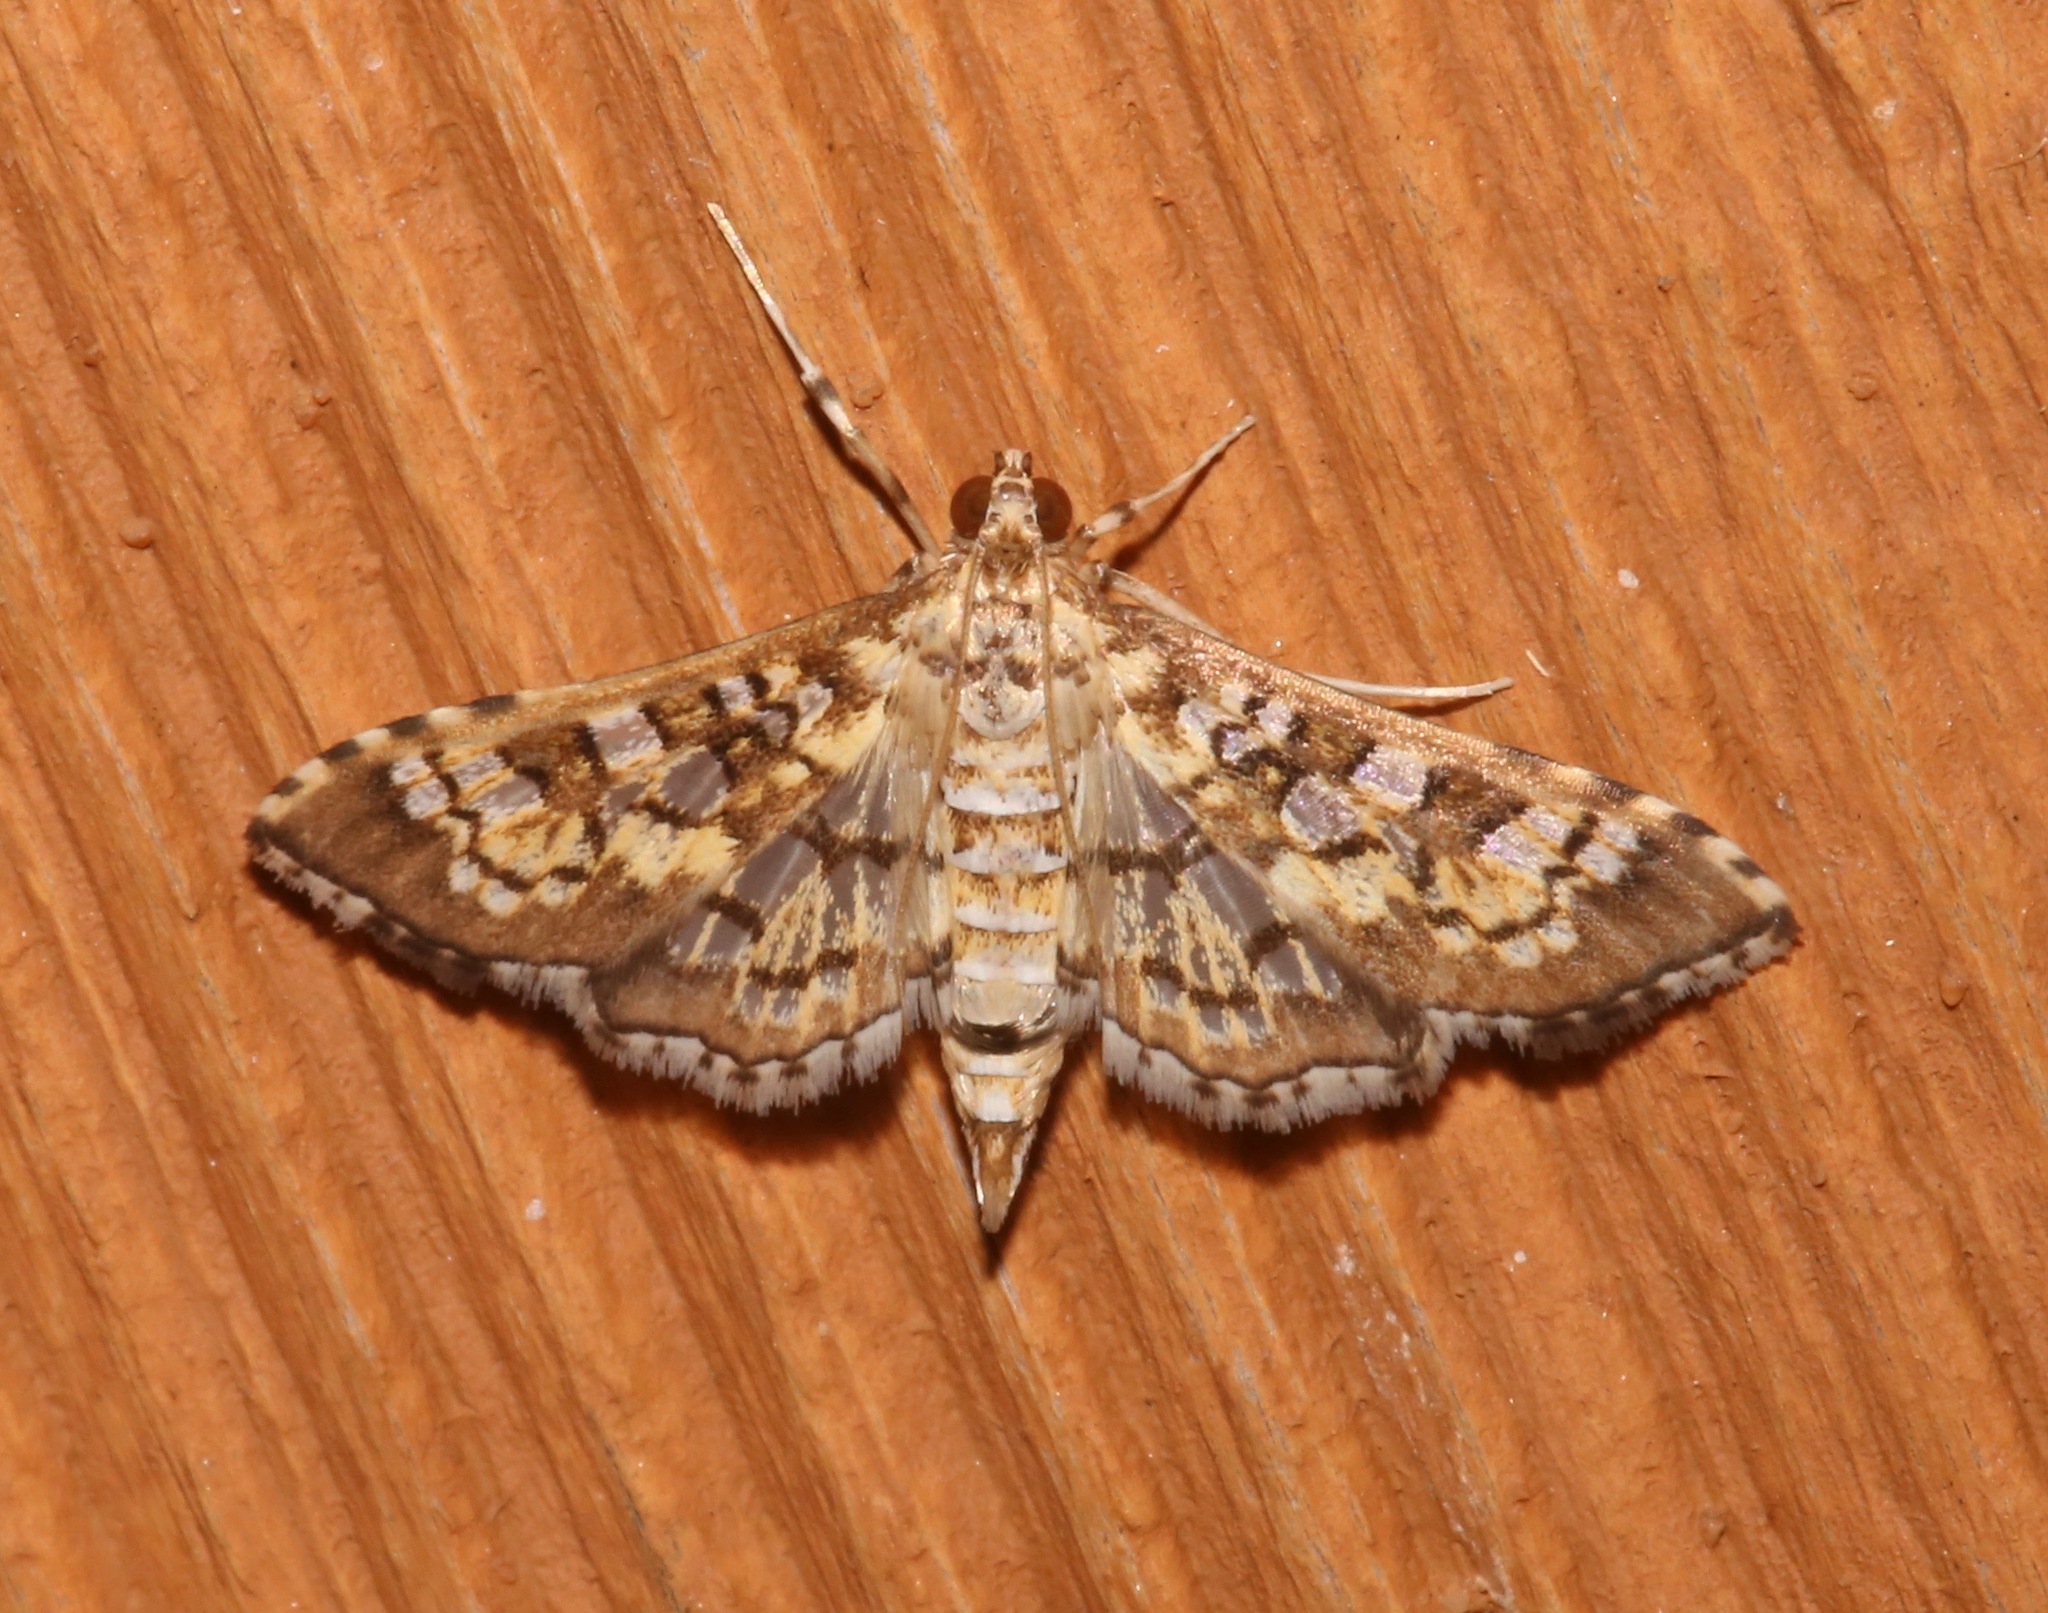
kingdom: Animalia
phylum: Arthropoda
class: Insecta
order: Lepidoptera
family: Crambidae
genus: Samea
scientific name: Samea ecclesialis
